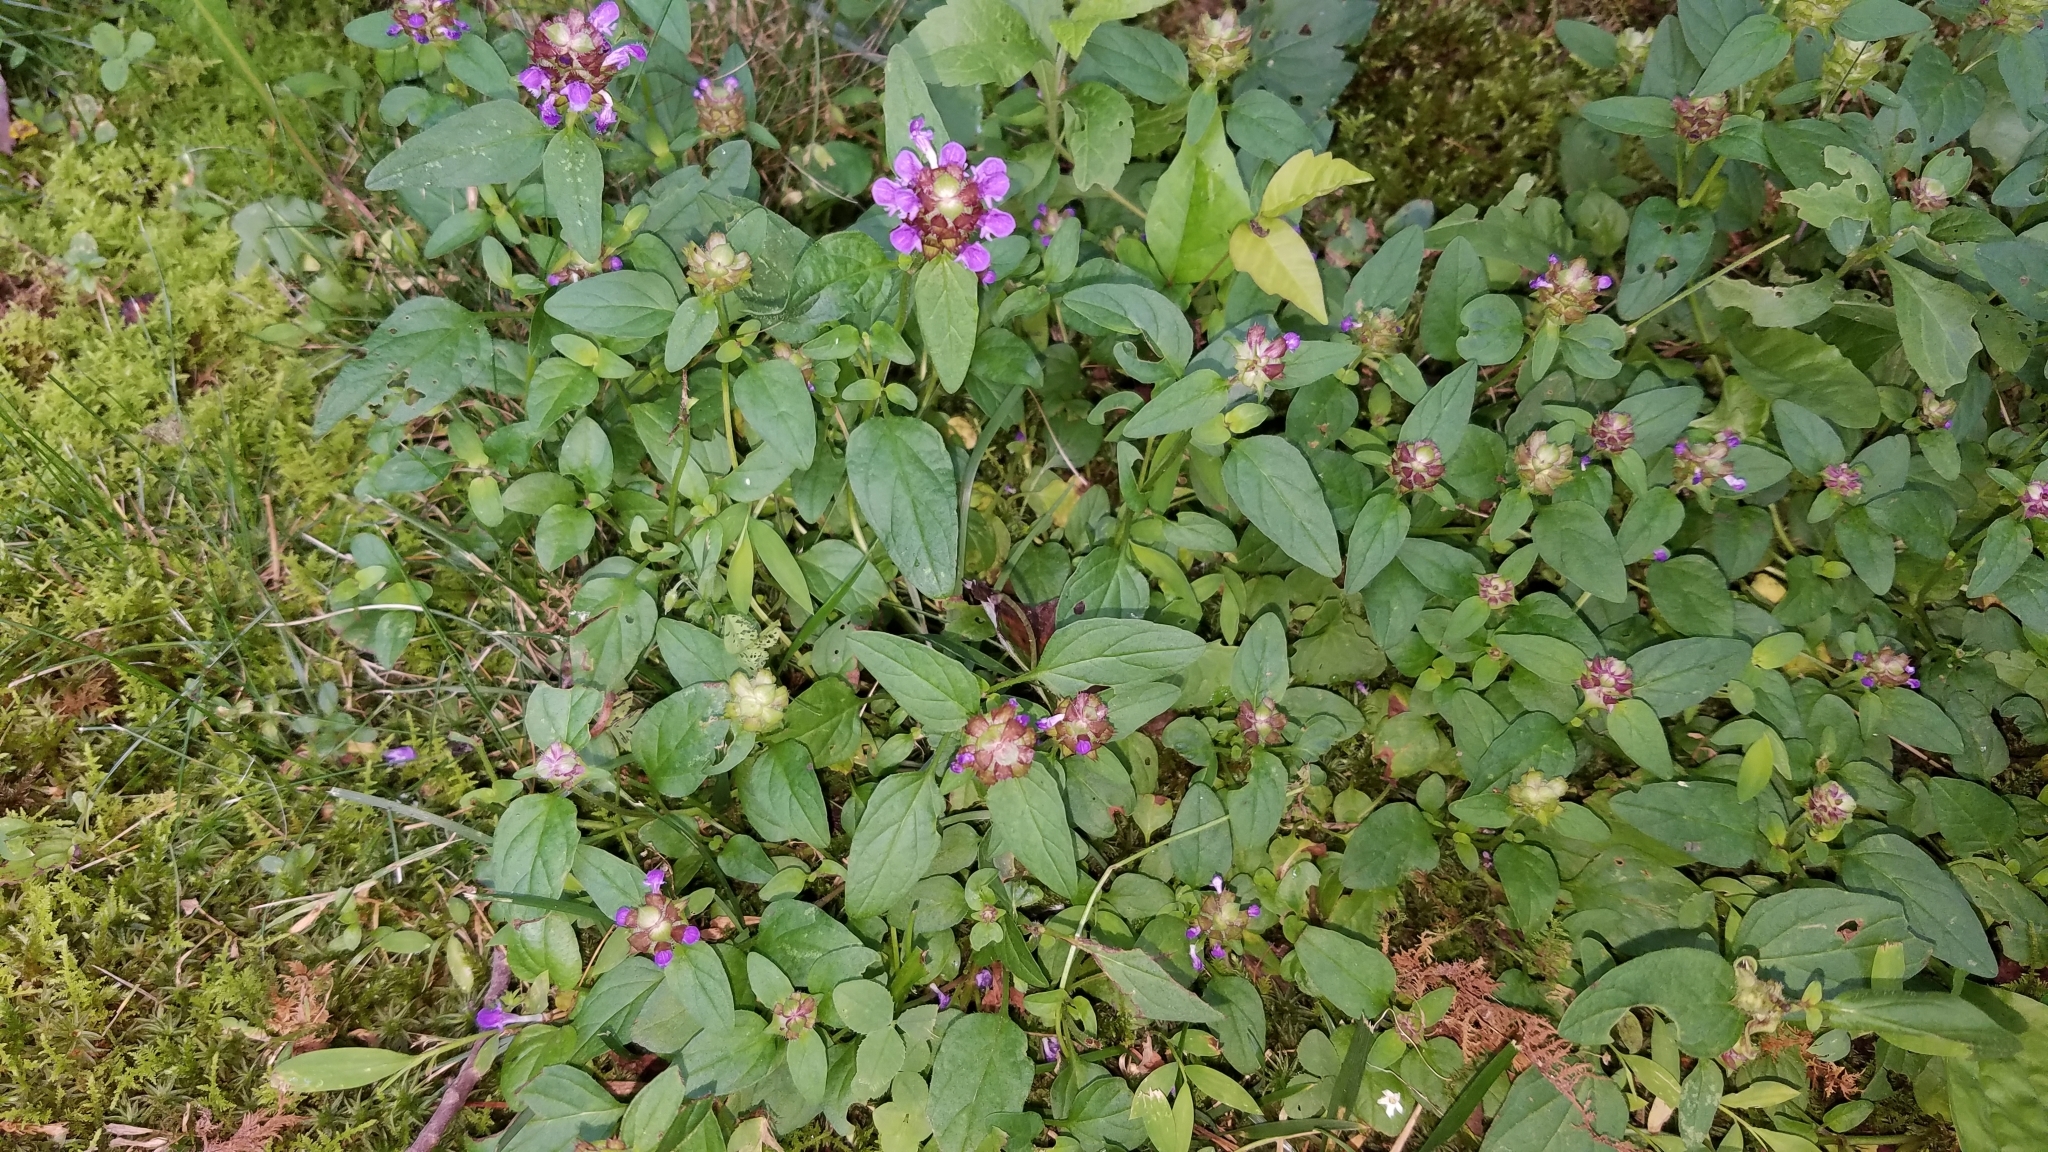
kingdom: Plantae
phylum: Tracheophyta
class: Magnoliopsida
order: Lamiales
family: Lamiaceae
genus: Prunella
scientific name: Prunella vulgaris
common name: Heal-all
